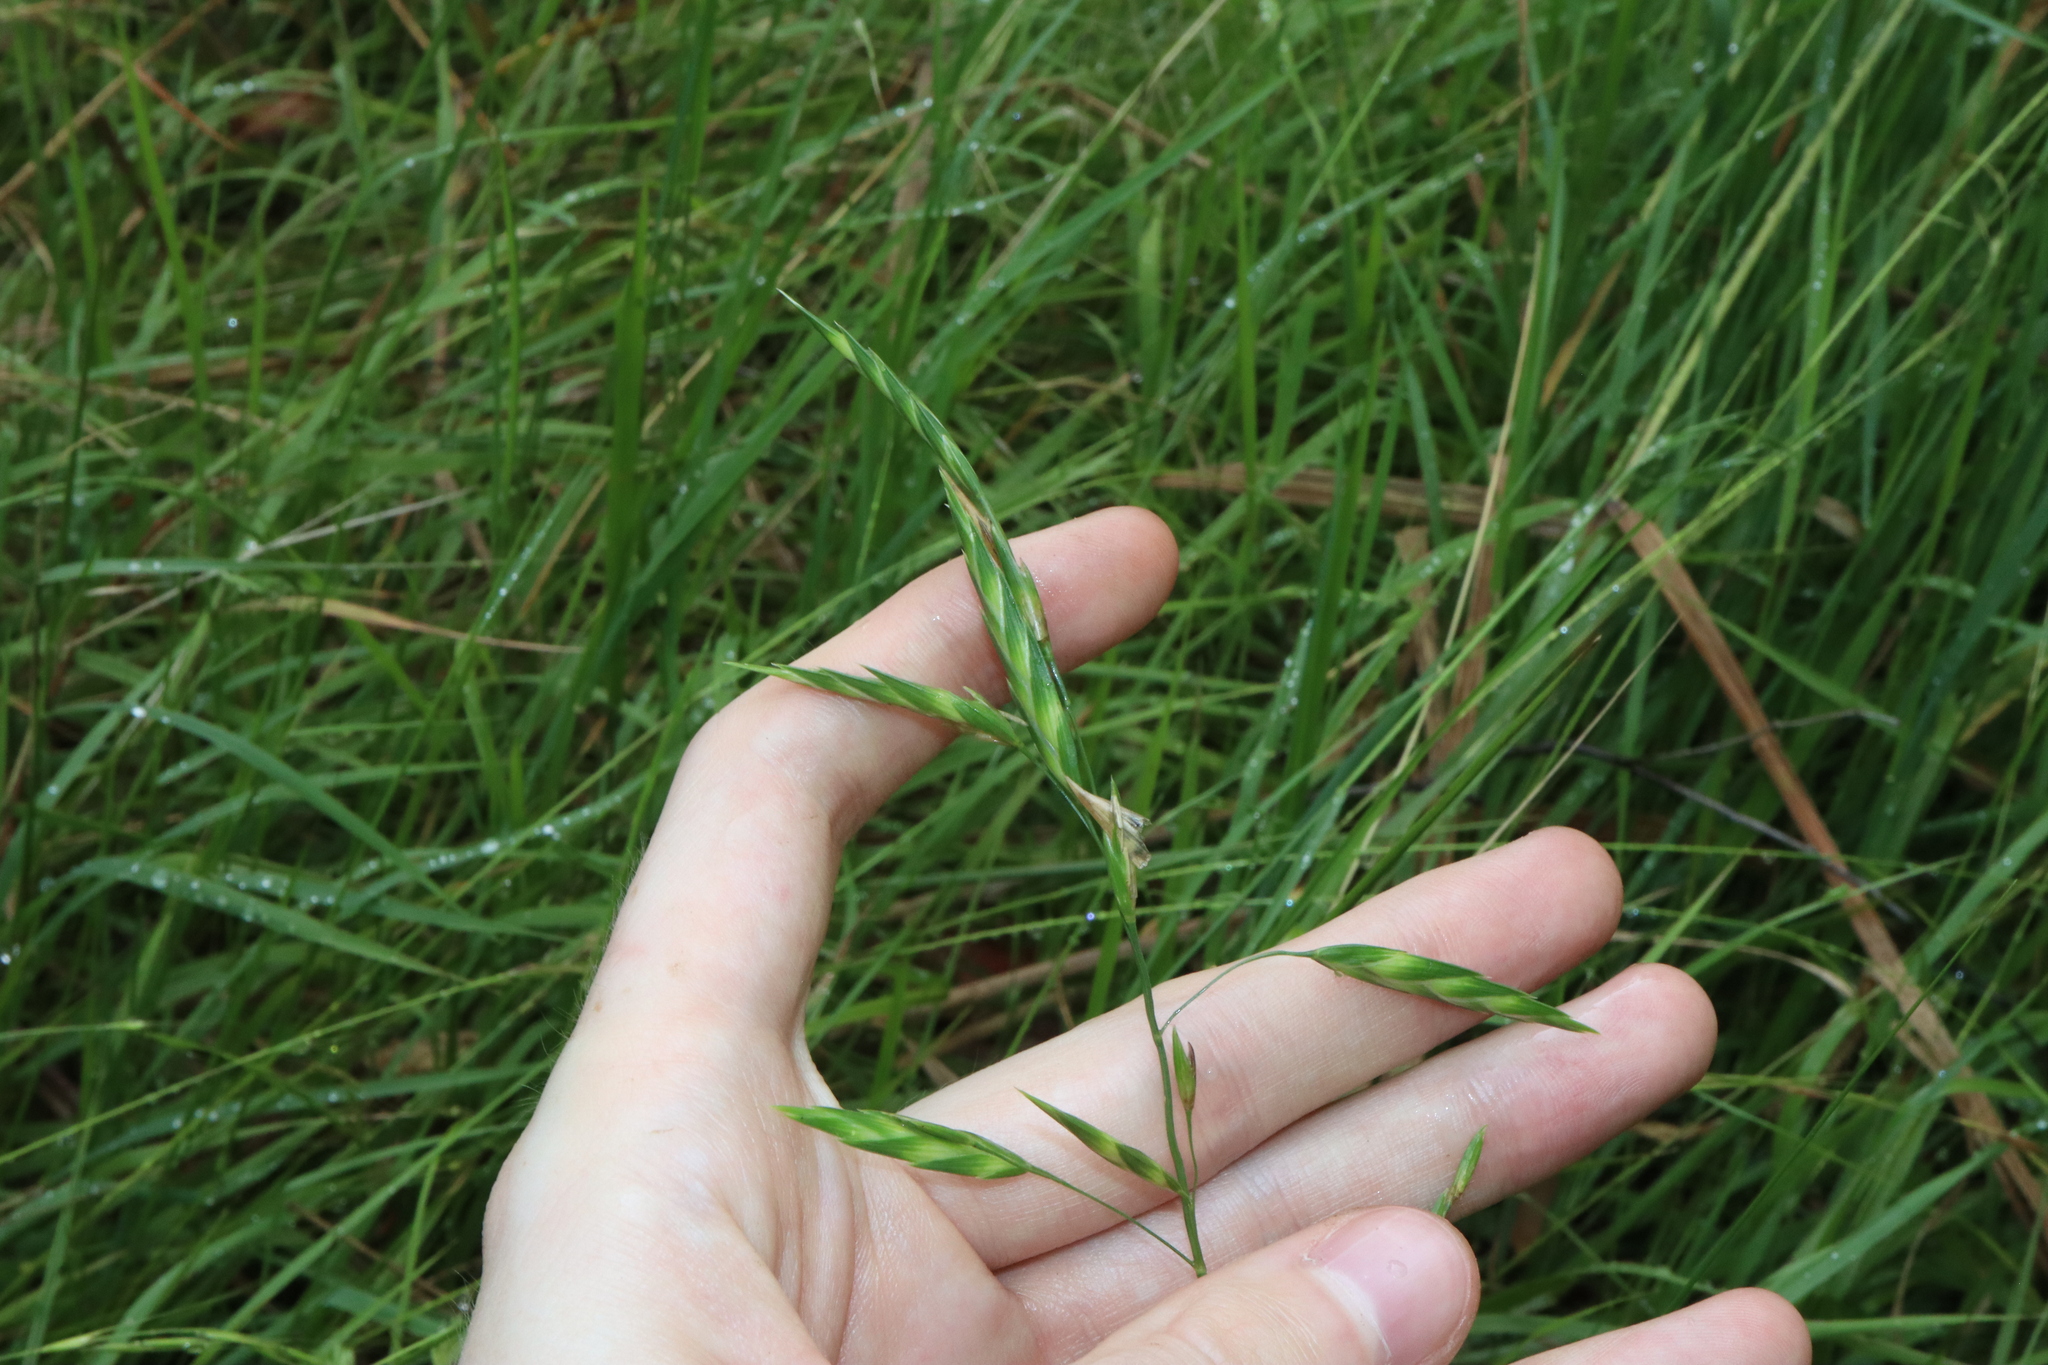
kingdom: Plantae
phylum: Tracheophyta
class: Liliopsida
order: Poales
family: Poaceae
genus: Bromus
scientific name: Bromus catharticus
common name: Rescuegrass
